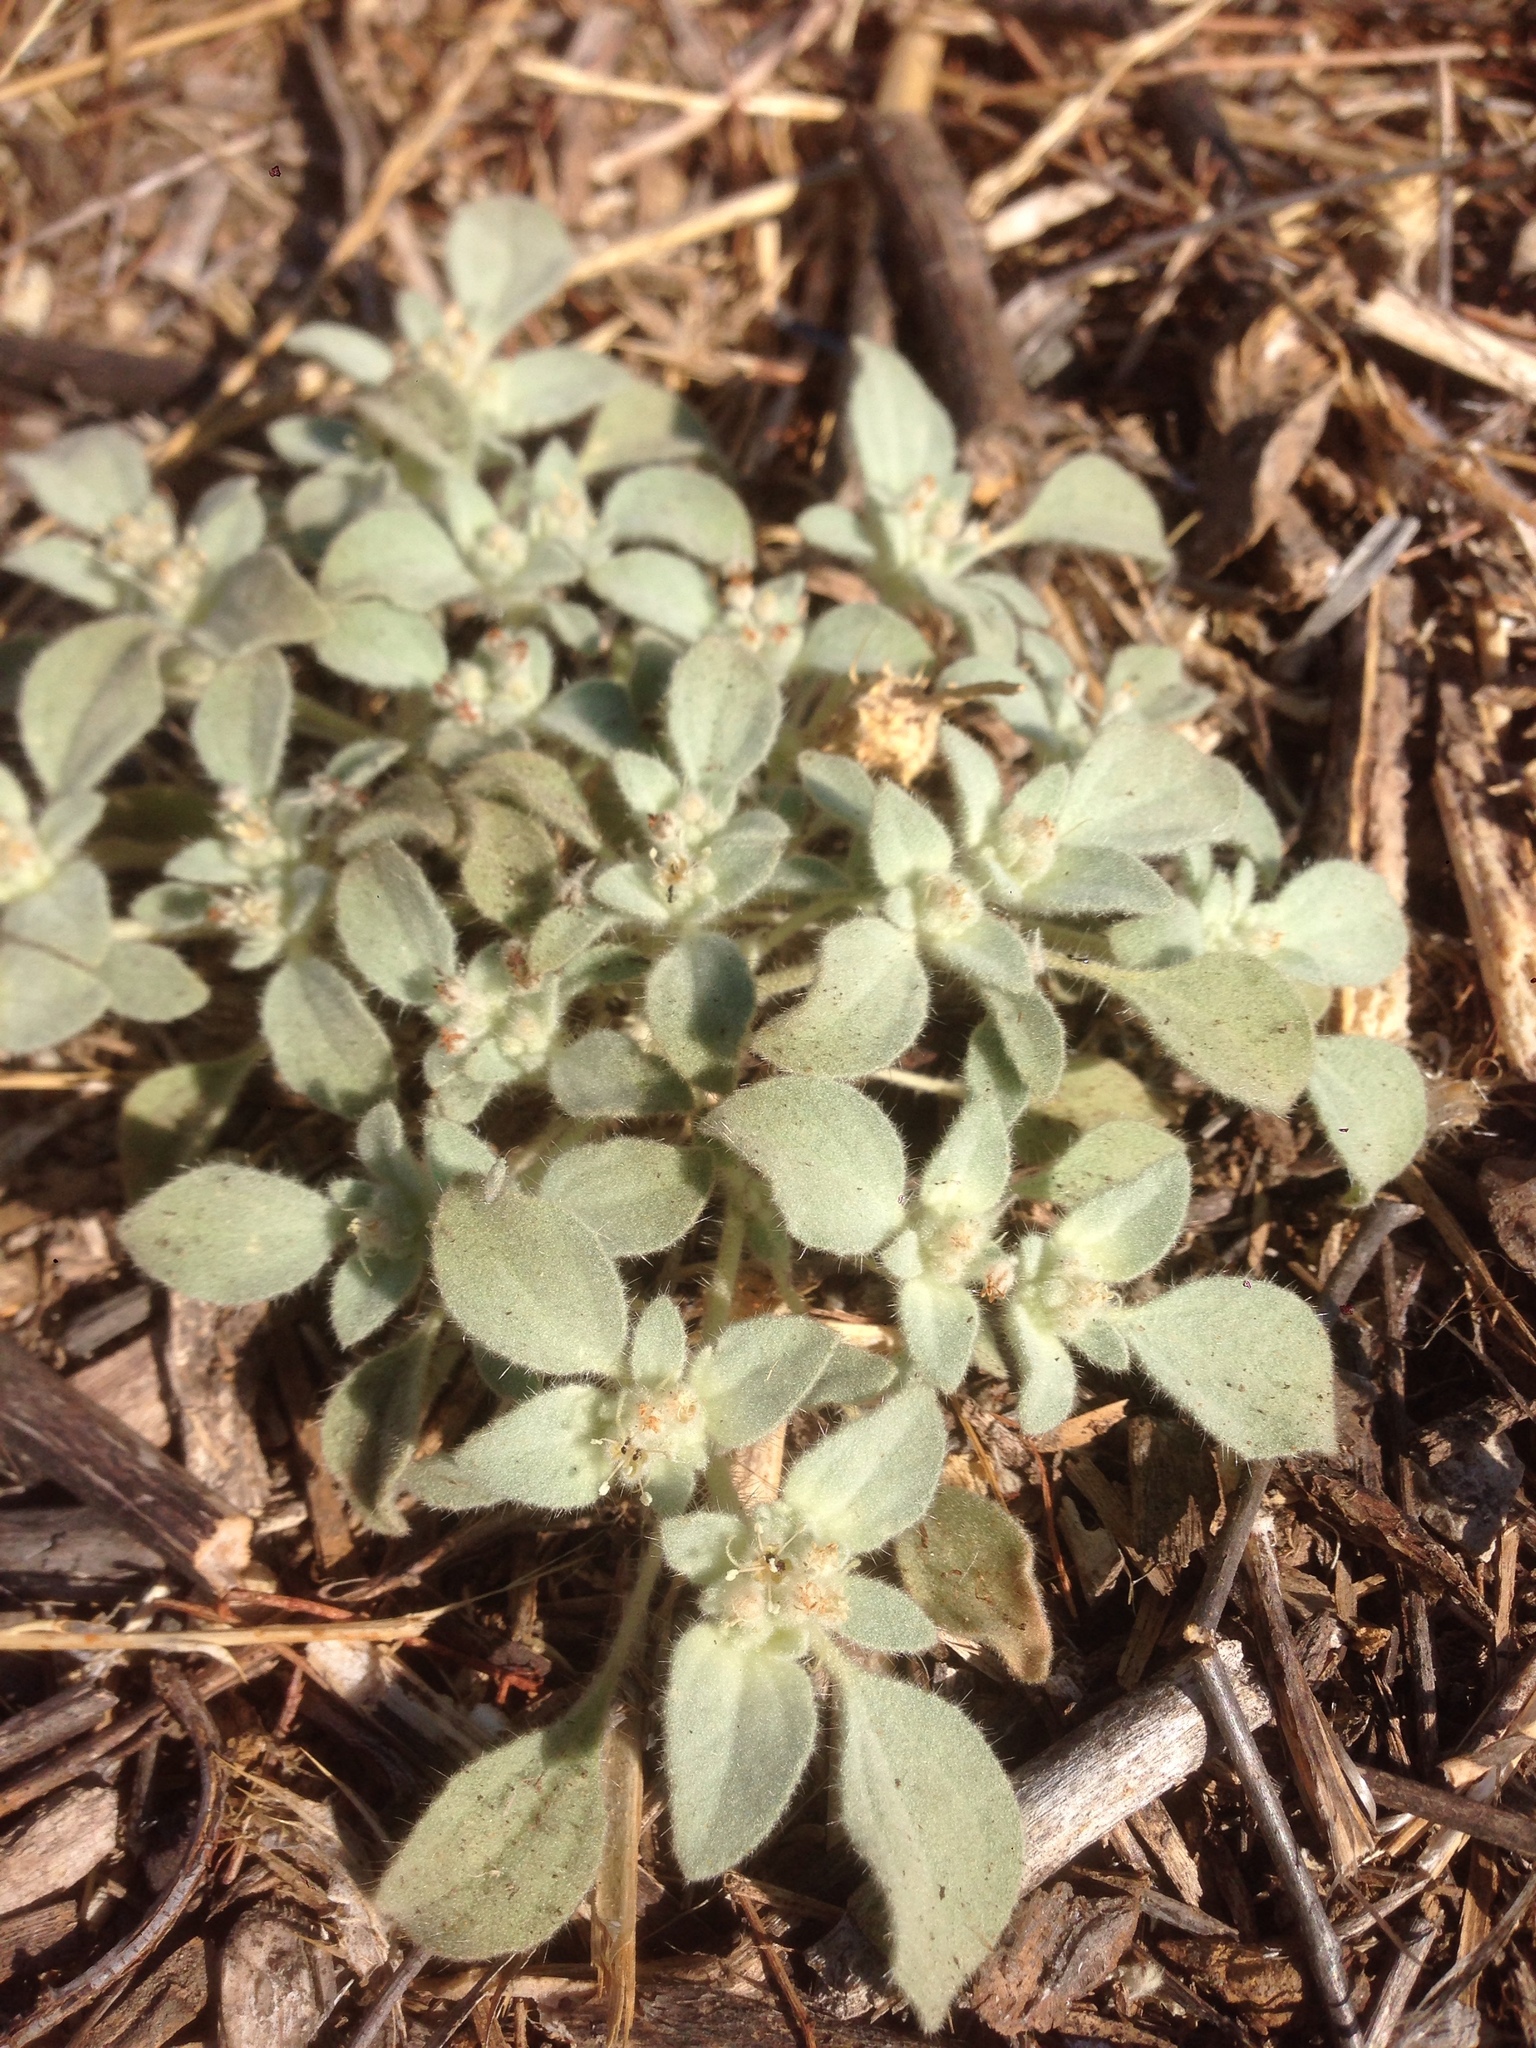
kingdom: Plantae
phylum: Tracheophyta
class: Magnoliopsida
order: Malpighiales
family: Euphorbiaceae
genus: Croton
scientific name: Croton setiger
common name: Dove weed
